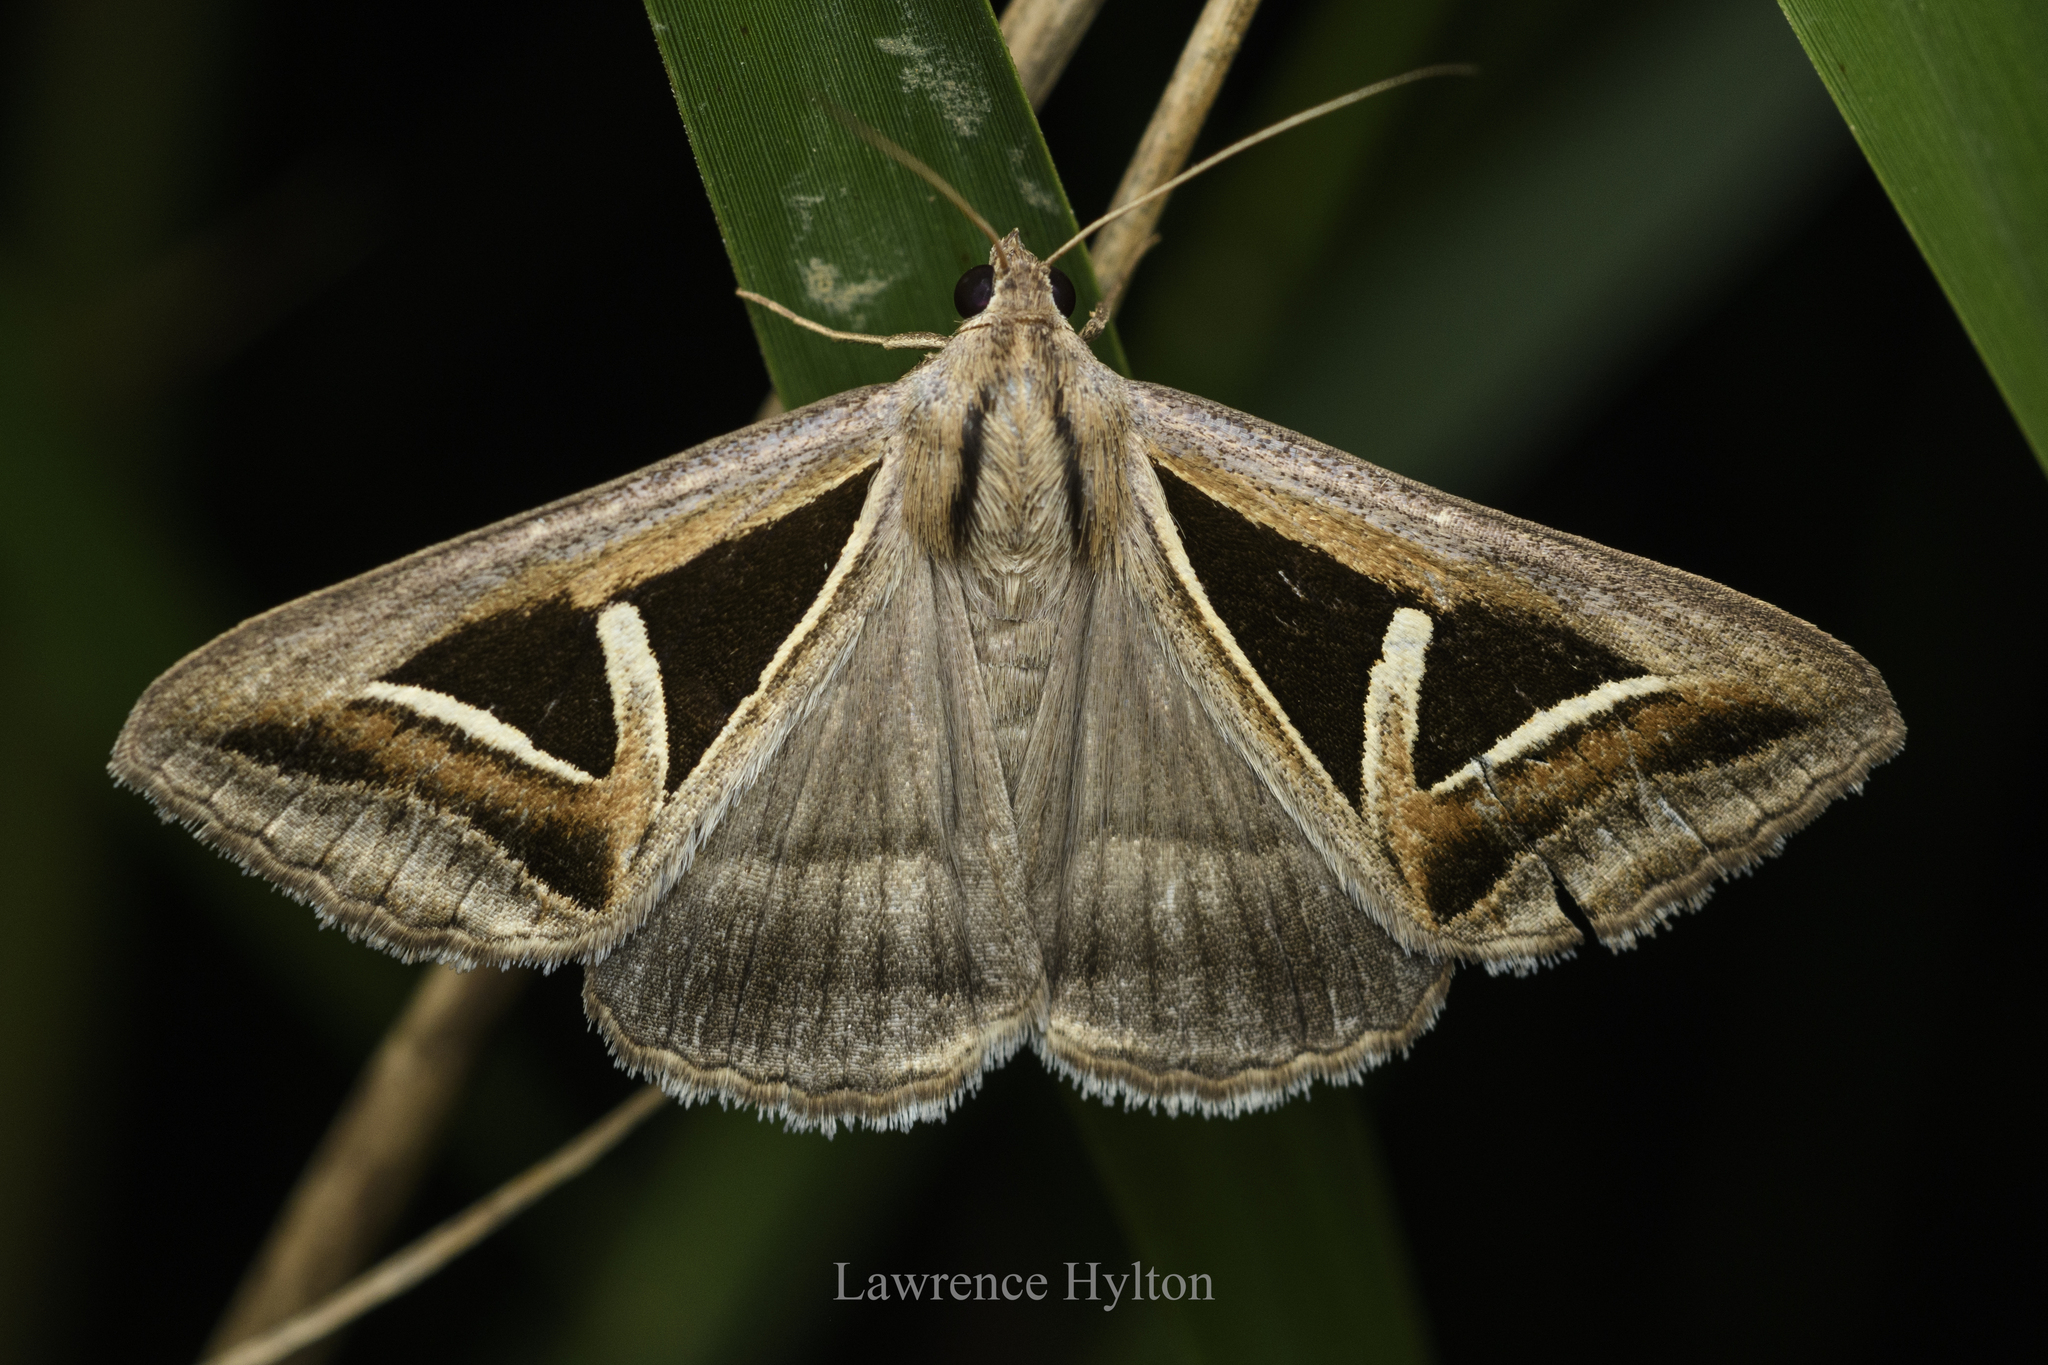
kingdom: Animalia
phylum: Arthropoda
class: Insecta
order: Lepidoptera
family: Erebidae
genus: Trigonodes
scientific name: Trigonodes hyppasia
